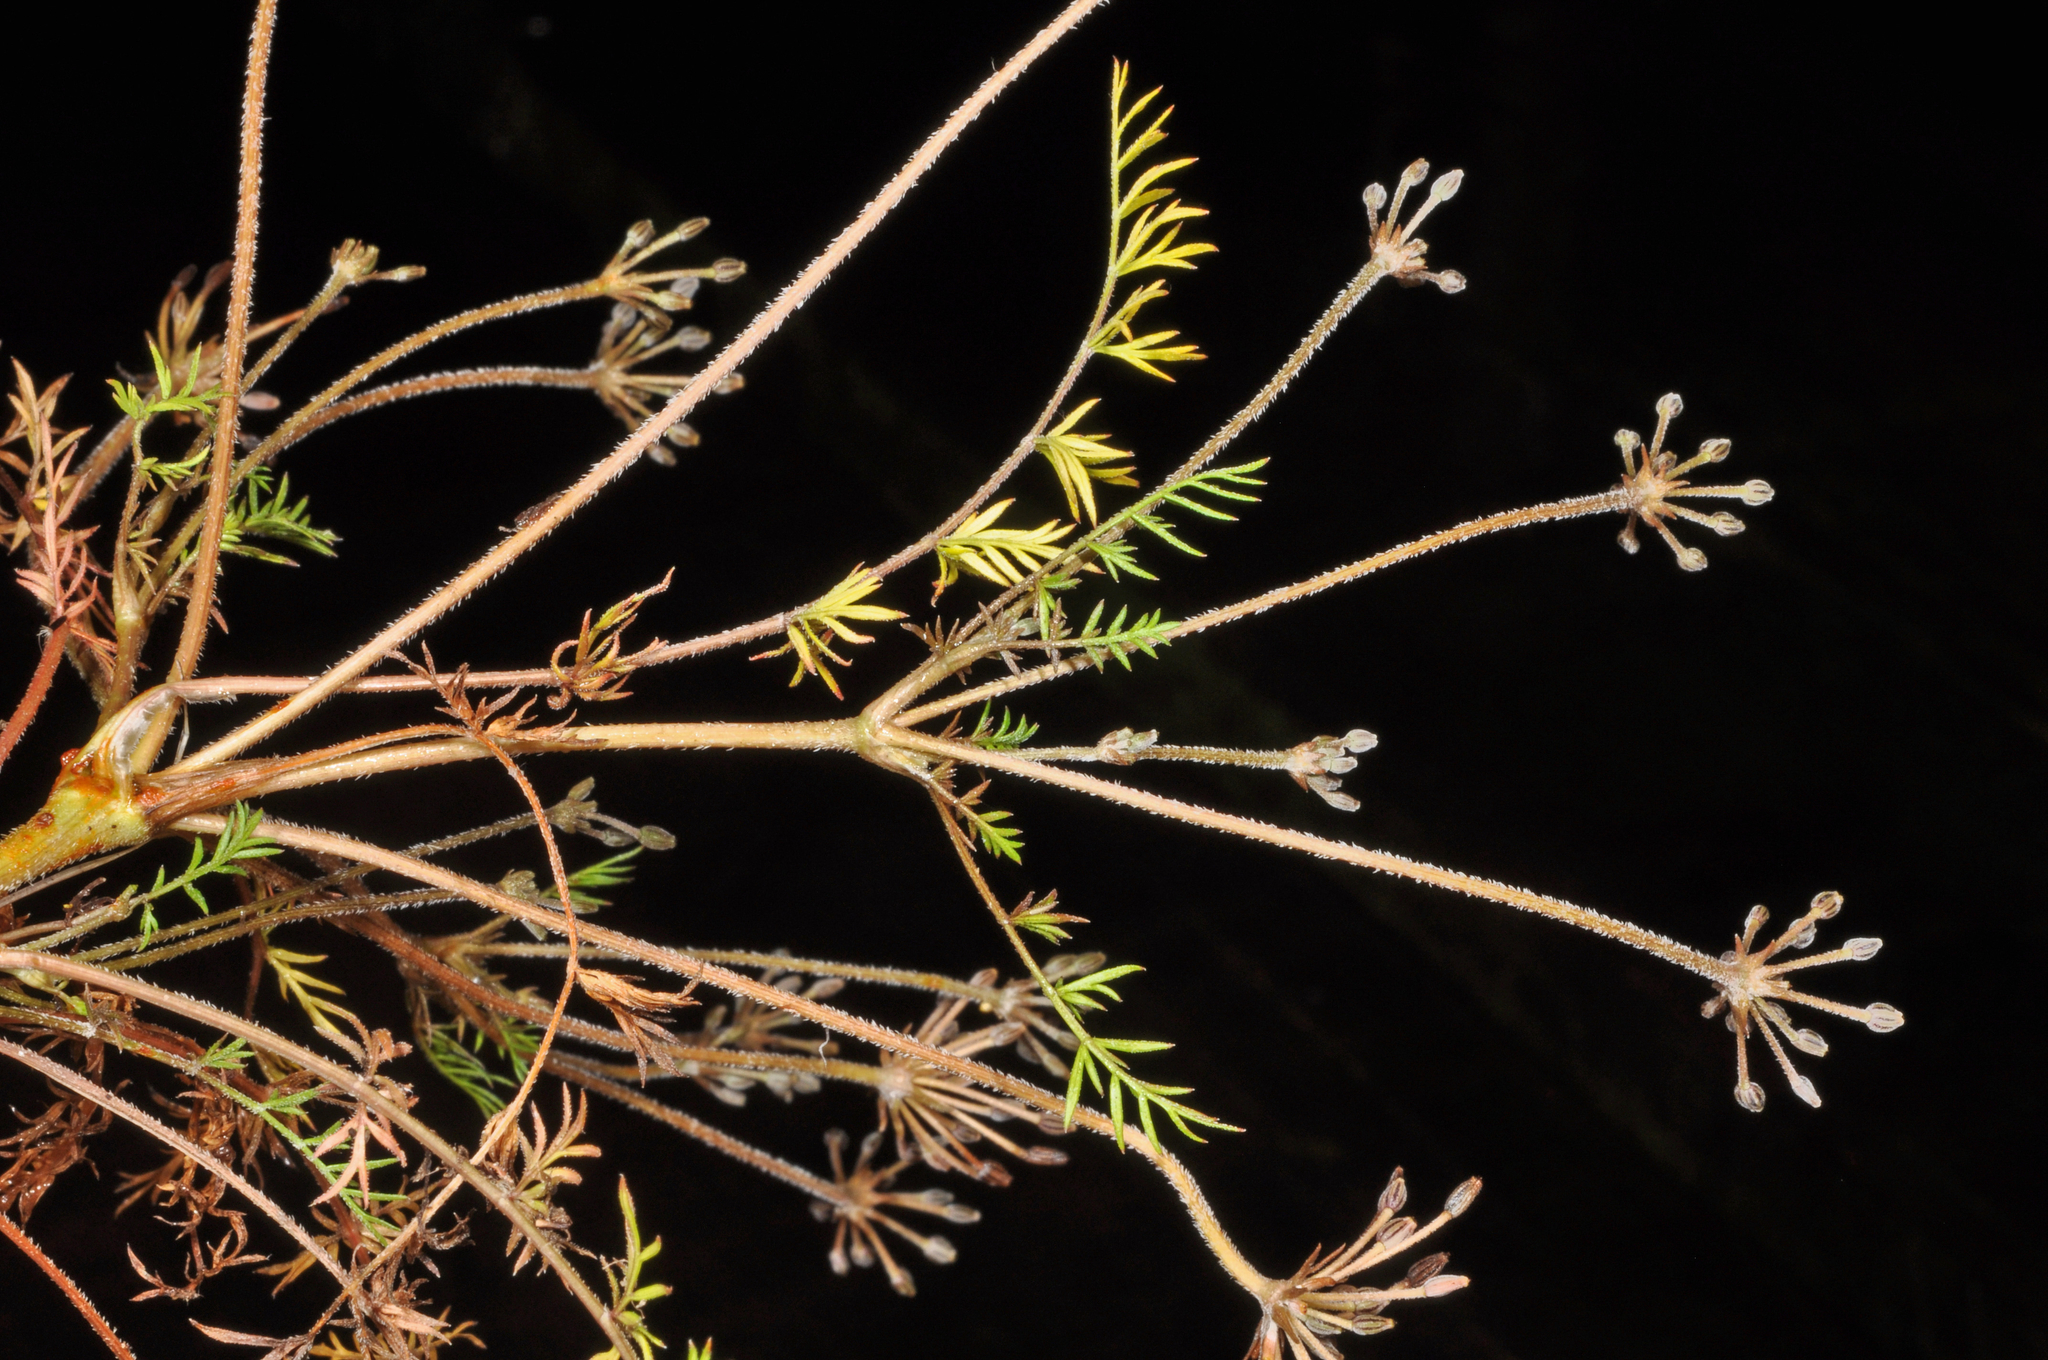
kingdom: Plantae
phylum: Tracheophyta
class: Magnoliopsida
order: Apiales
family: Apiaceae
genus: Chaerophyllum
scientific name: Chaerophyllum colensoi
